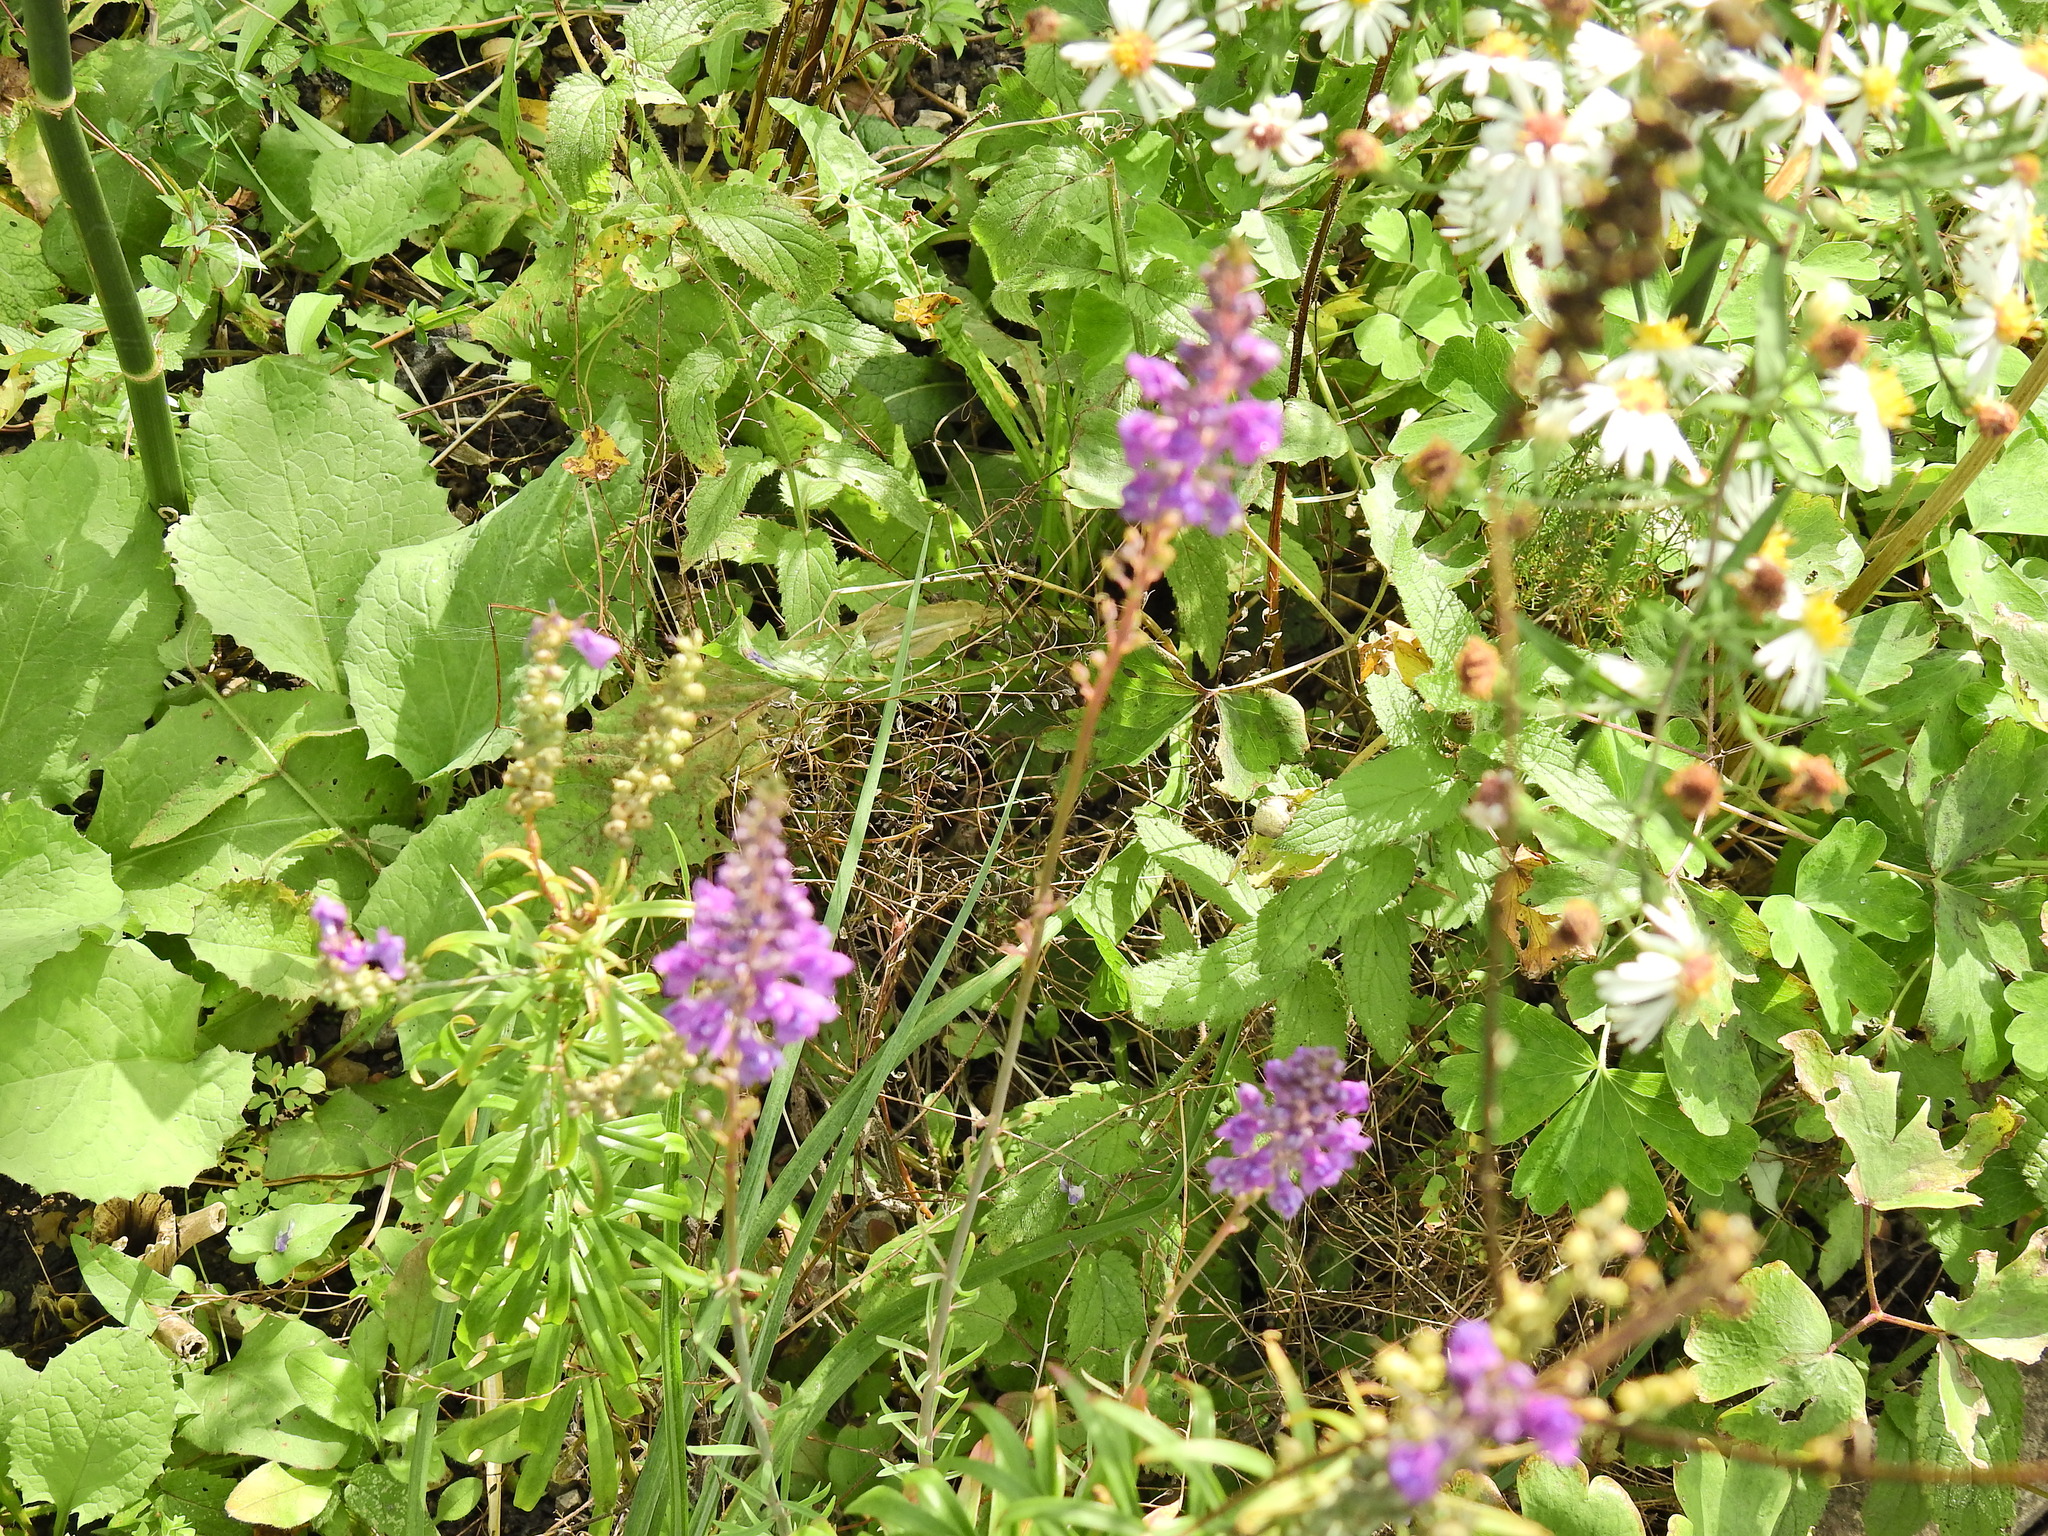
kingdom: Plantae
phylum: Tracheophyta
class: Magnoliopsida
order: Lamiales
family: Plantaginaceae
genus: Linaria
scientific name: Linaria purpurea
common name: Purple toadflax
